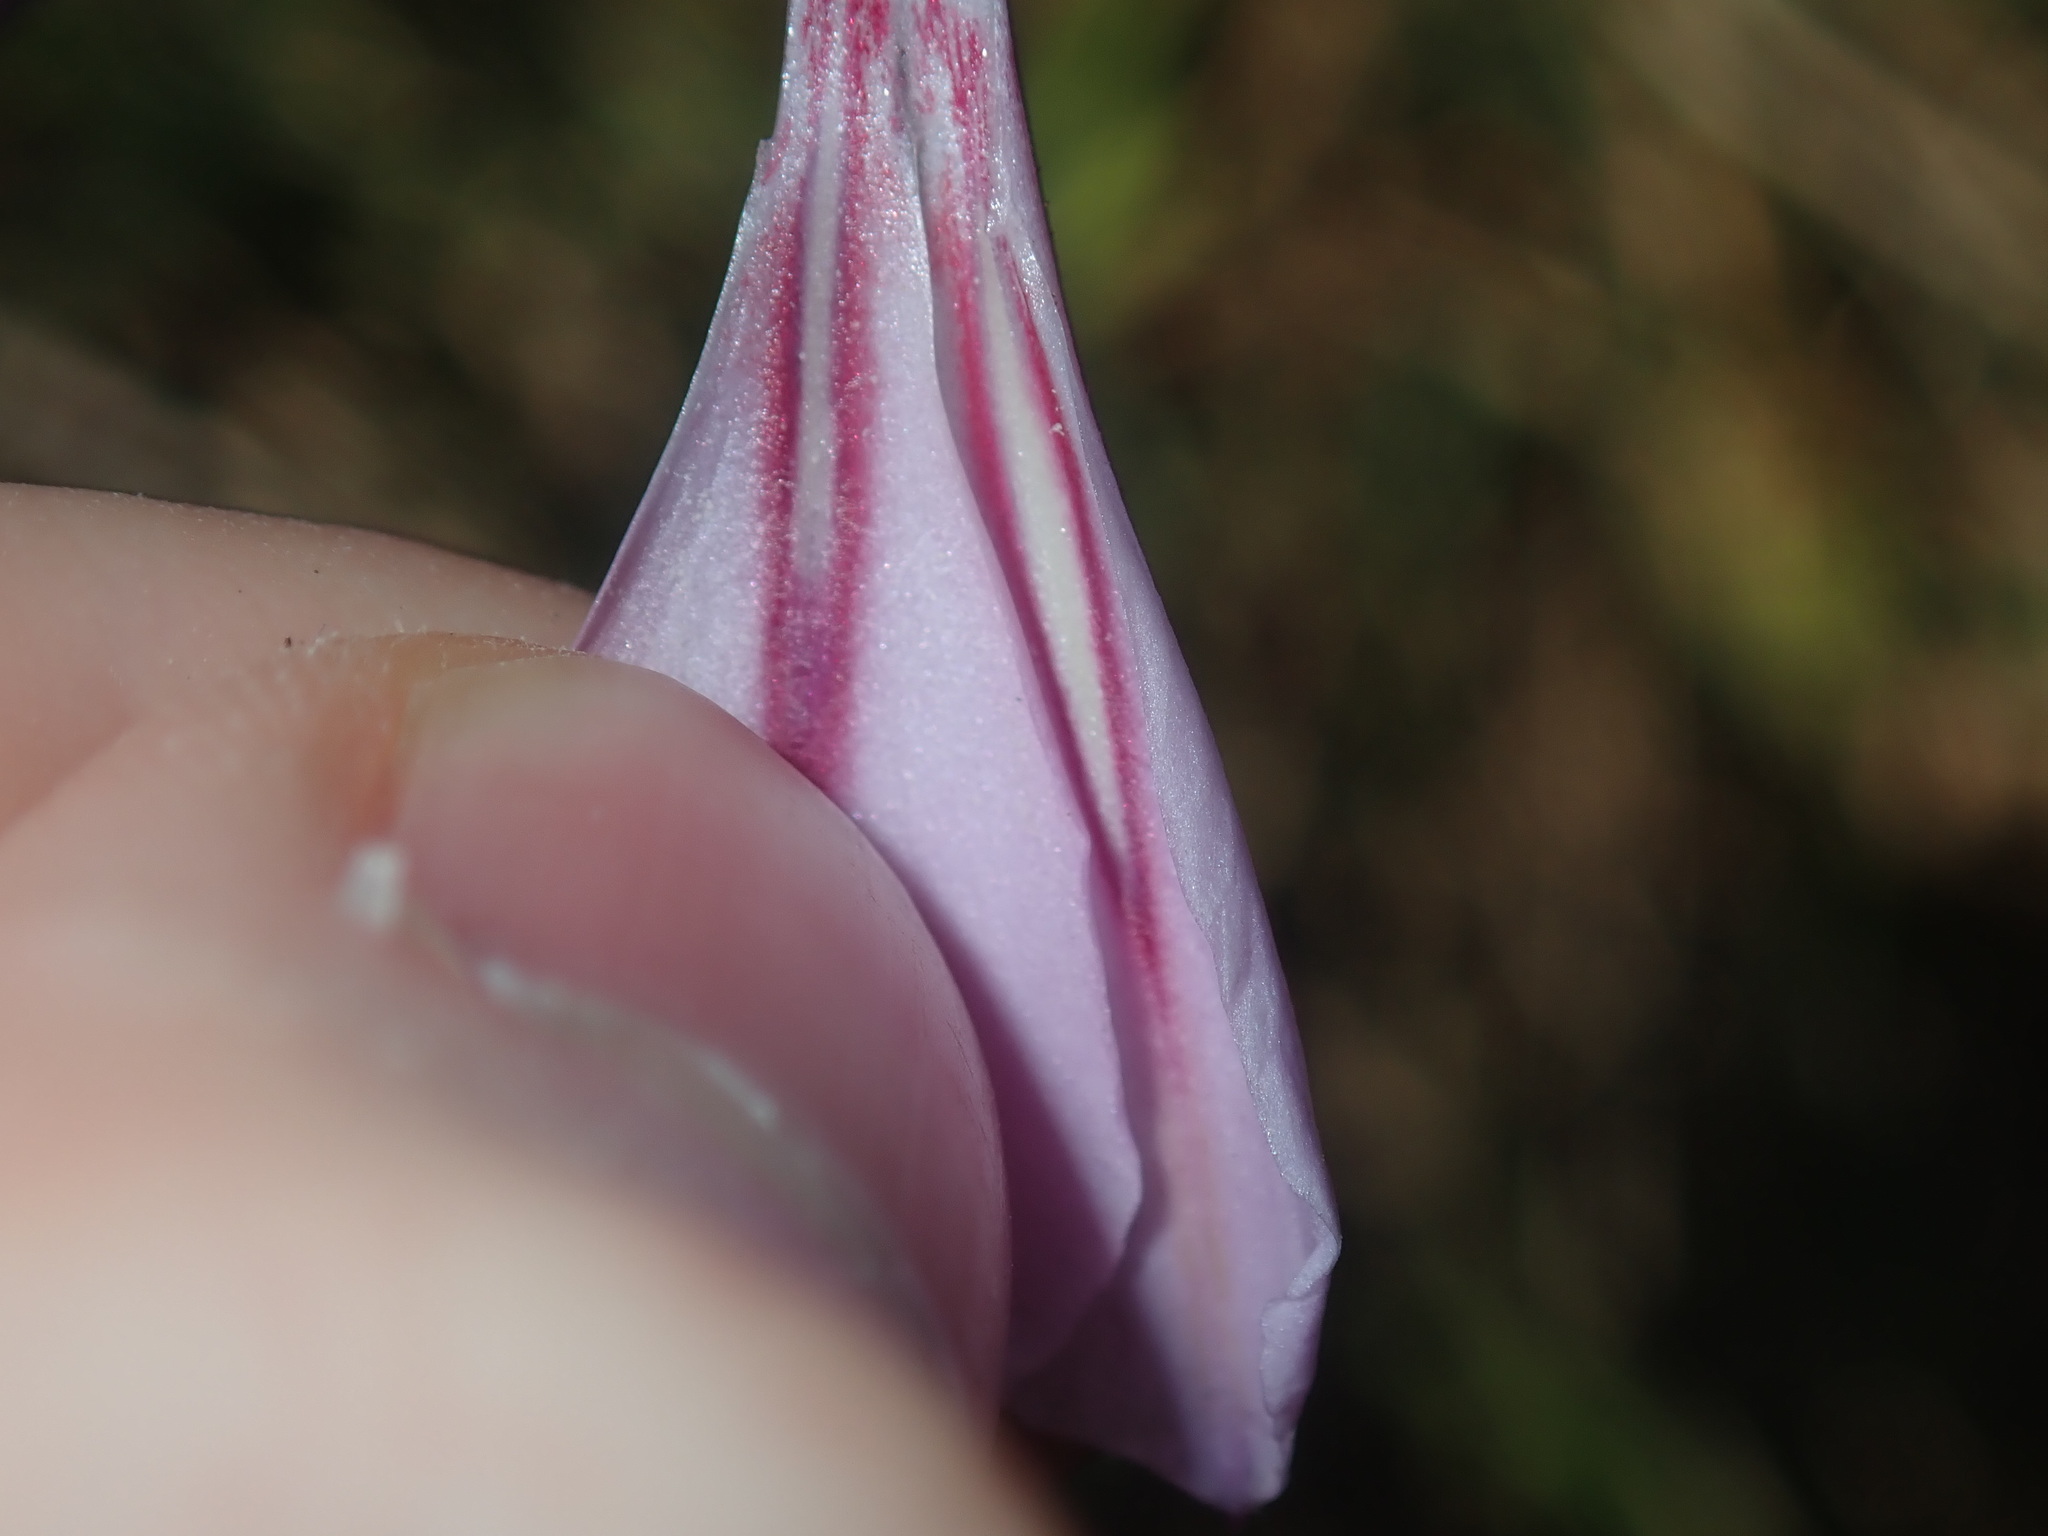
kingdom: Plantae
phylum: Tracheophyta
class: Liliopsida
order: Asparagales
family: Iridaceae
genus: Gladiolus
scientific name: Gladiolus gueinzii
